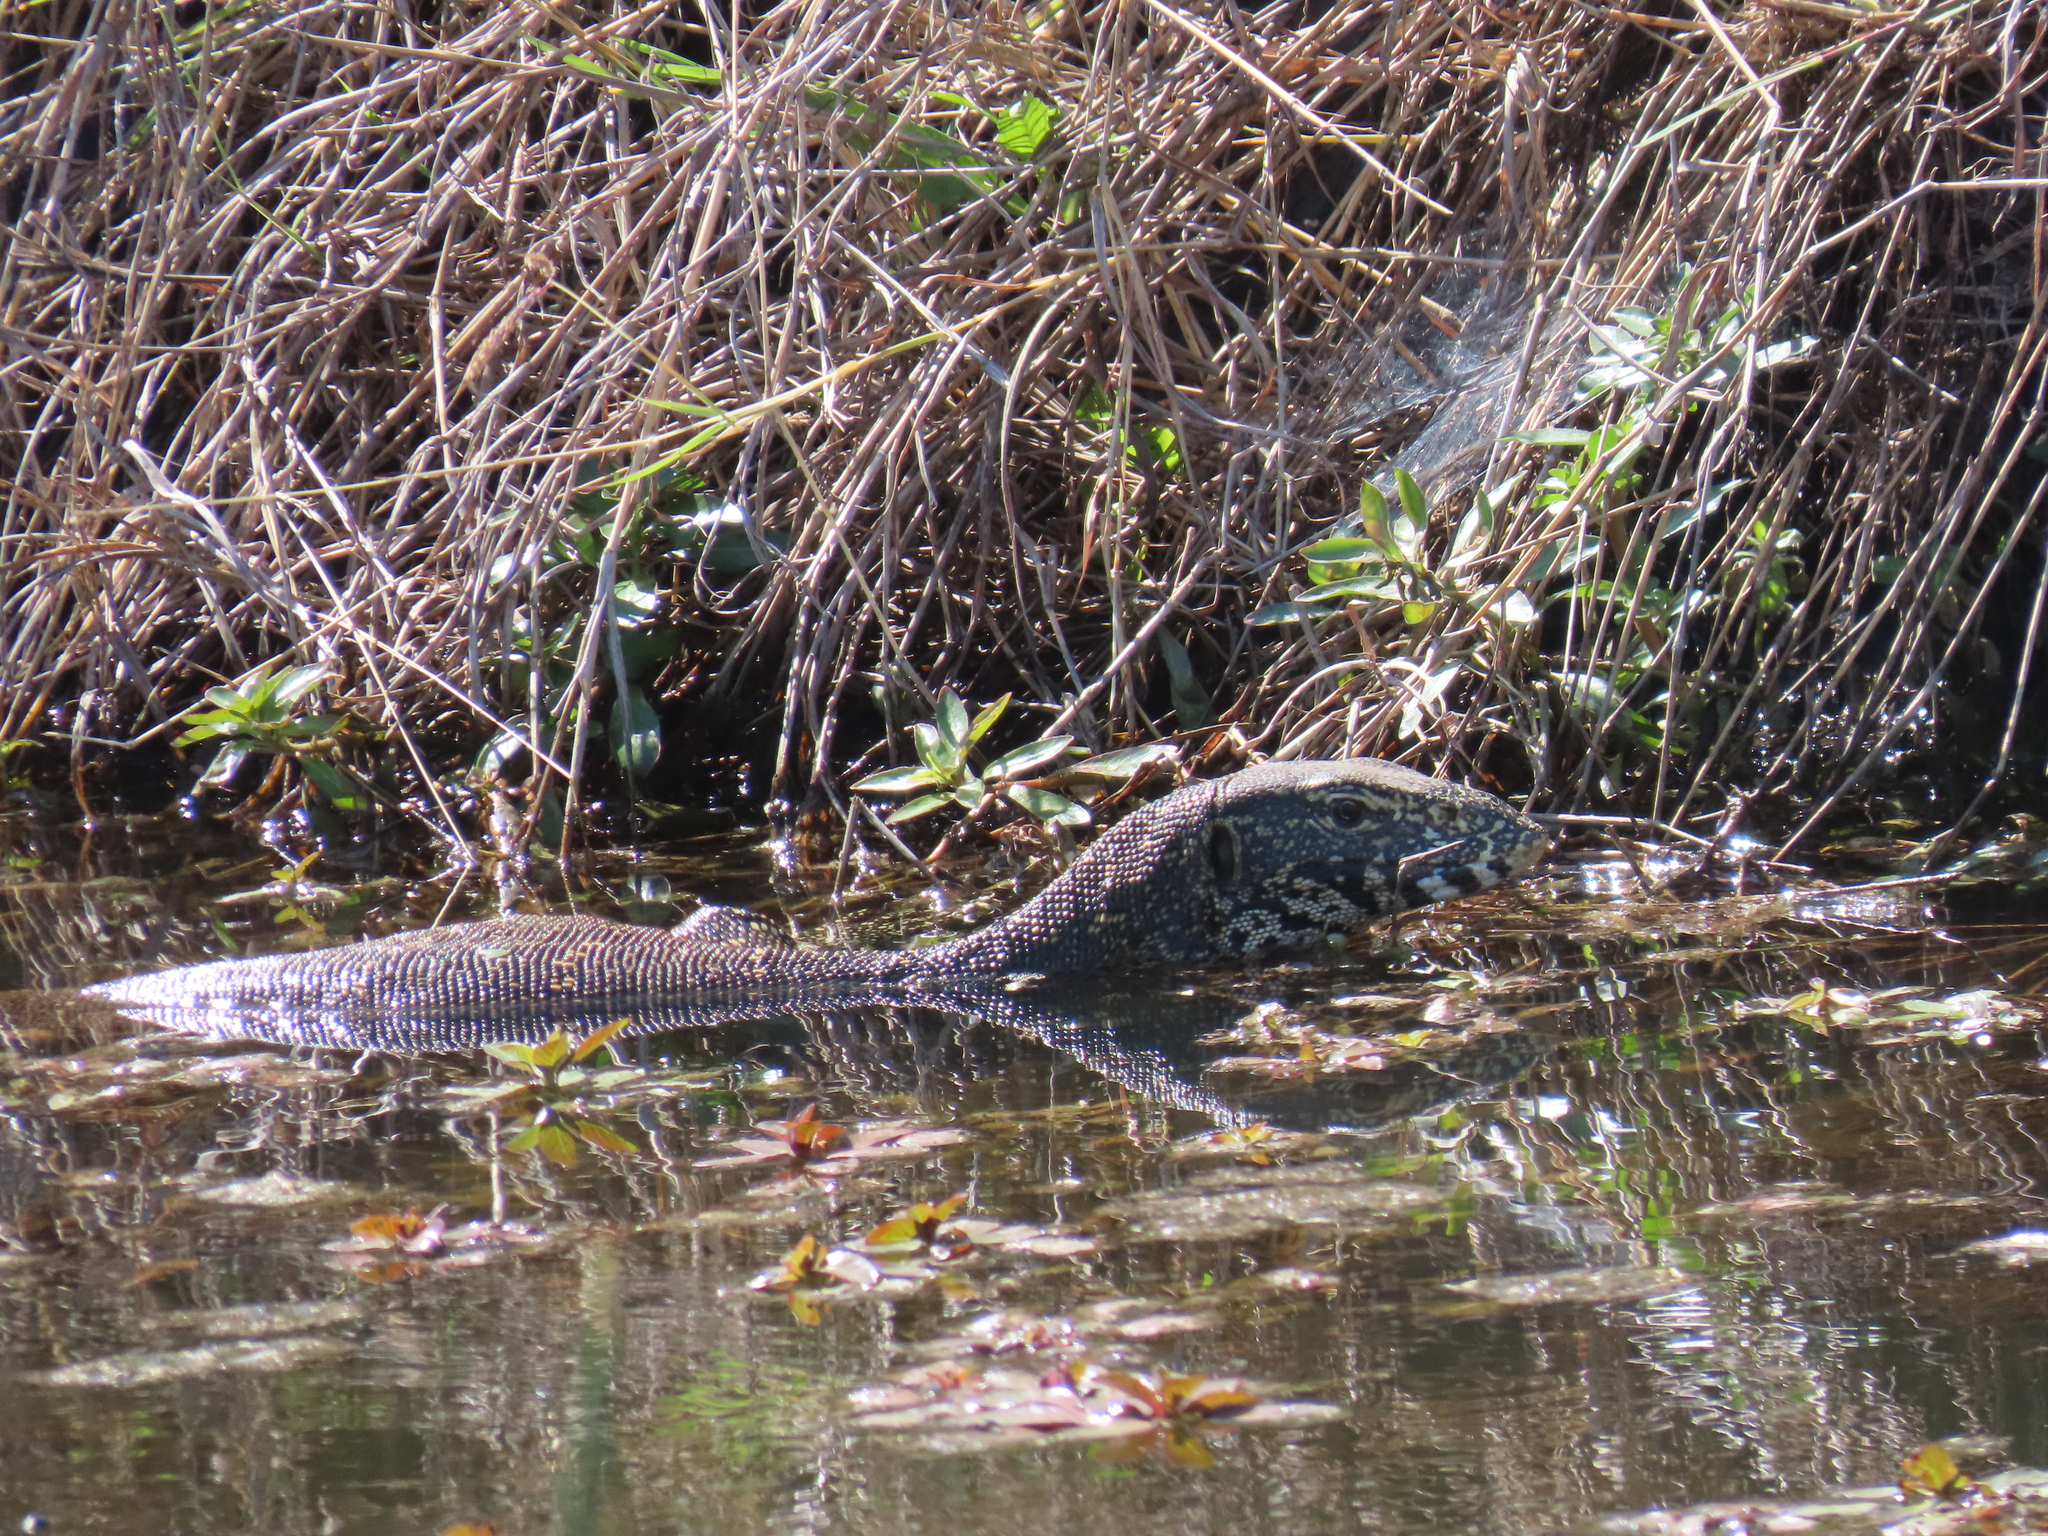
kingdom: Animalia
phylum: Chordata
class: Squamata
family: Varanidae
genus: Varanus
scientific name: Varanus niloticus
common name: Nile monitor
